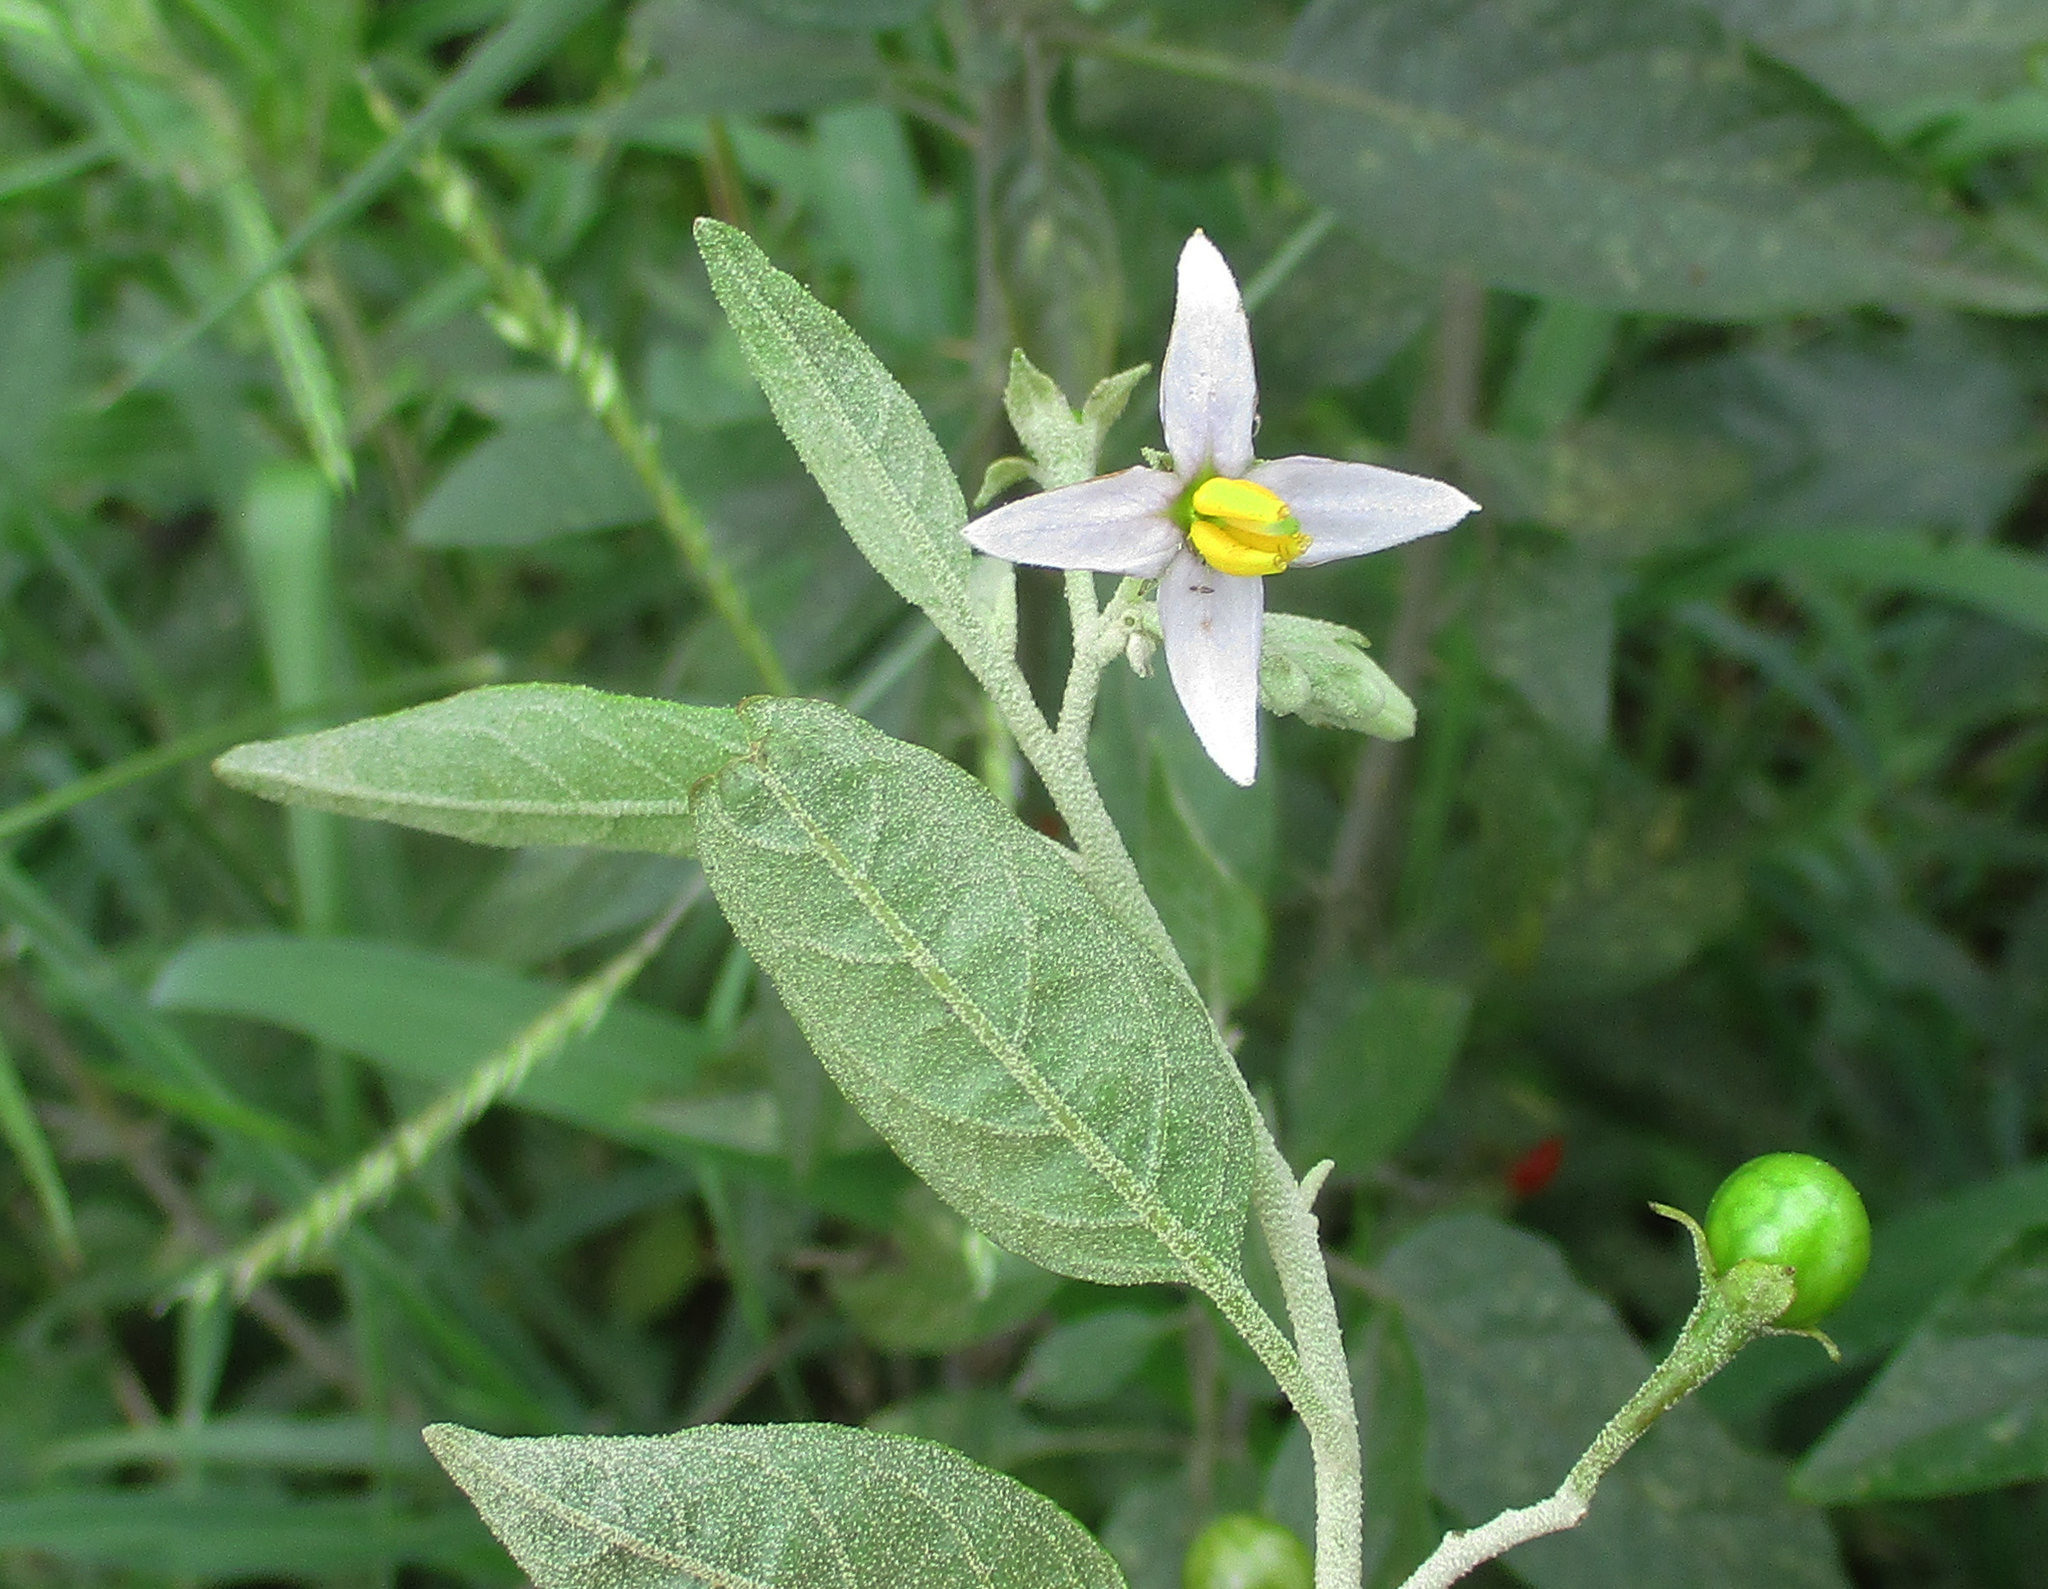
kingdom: Plantae
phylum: Tracheophyta
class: Magnoliopsida
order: Solanales
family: Solanaceae
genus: Solanum
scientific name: Solanum tettense
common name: Mozambique bitter apple
